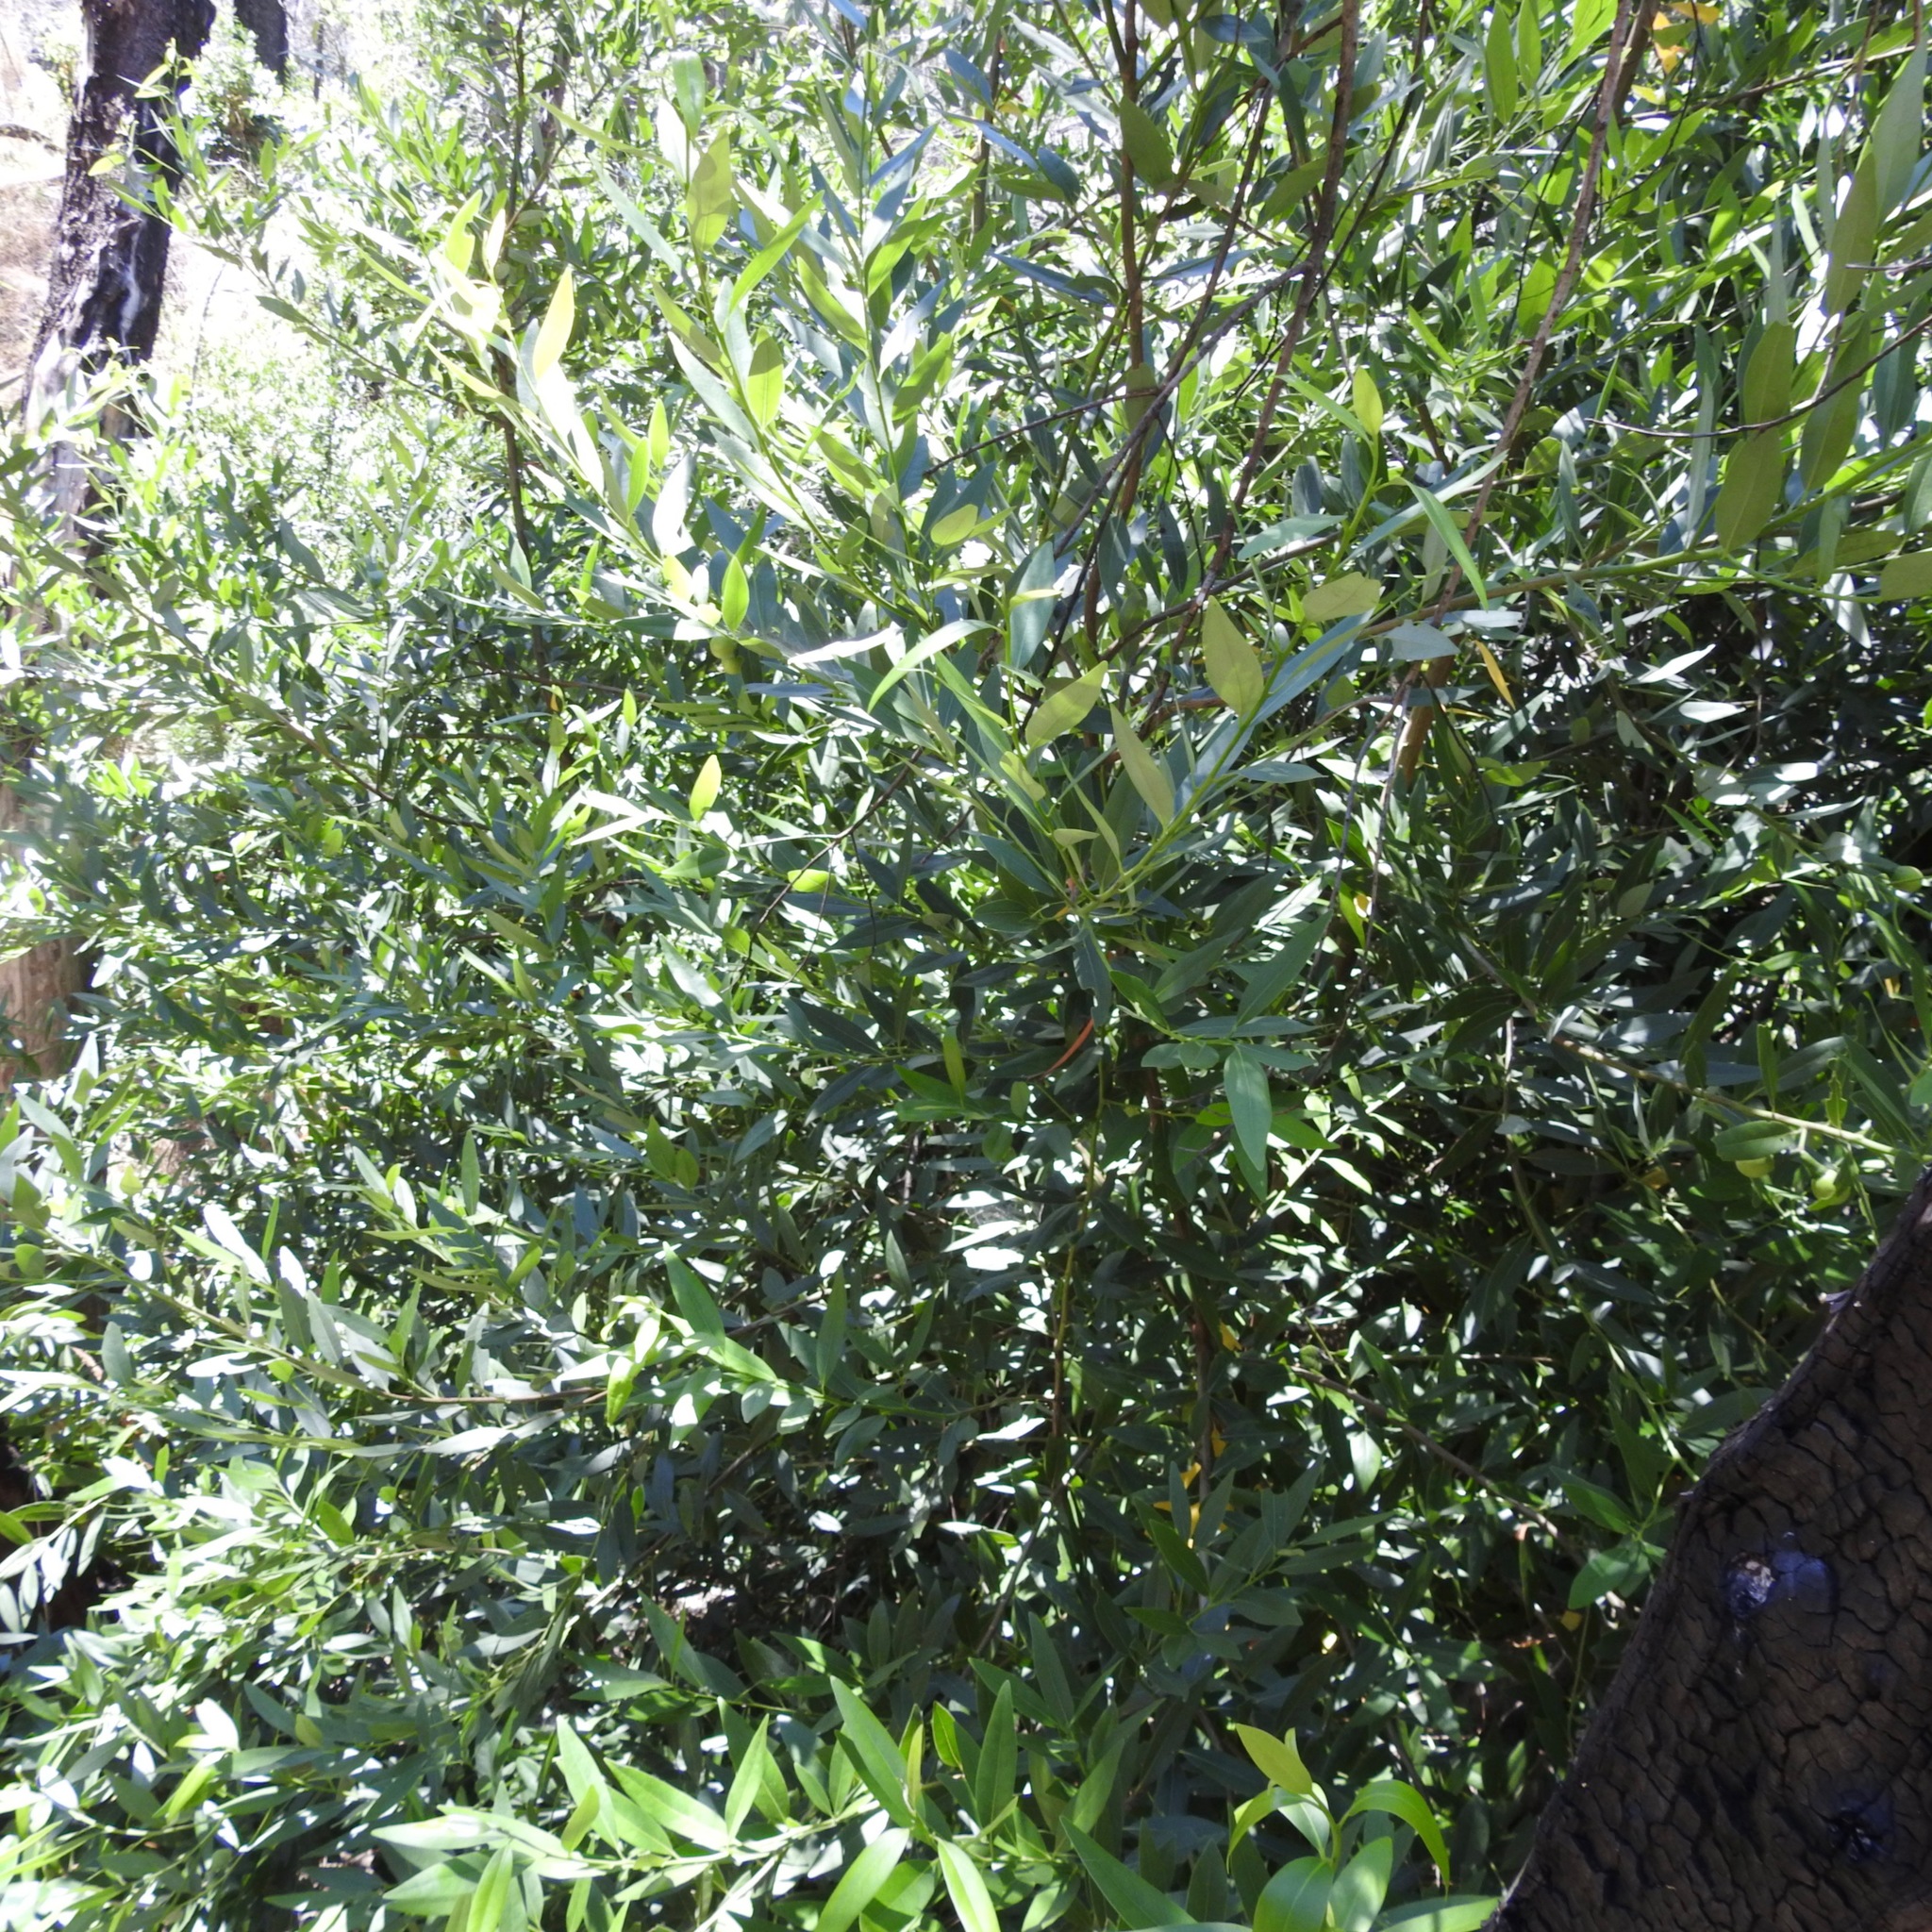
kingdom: Plantae
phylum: Tracheophyta
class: Magnoliopsida
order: Laurales
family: Lauraceae
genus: Umbellularia
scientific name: Umbellularia californica
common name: California bay
